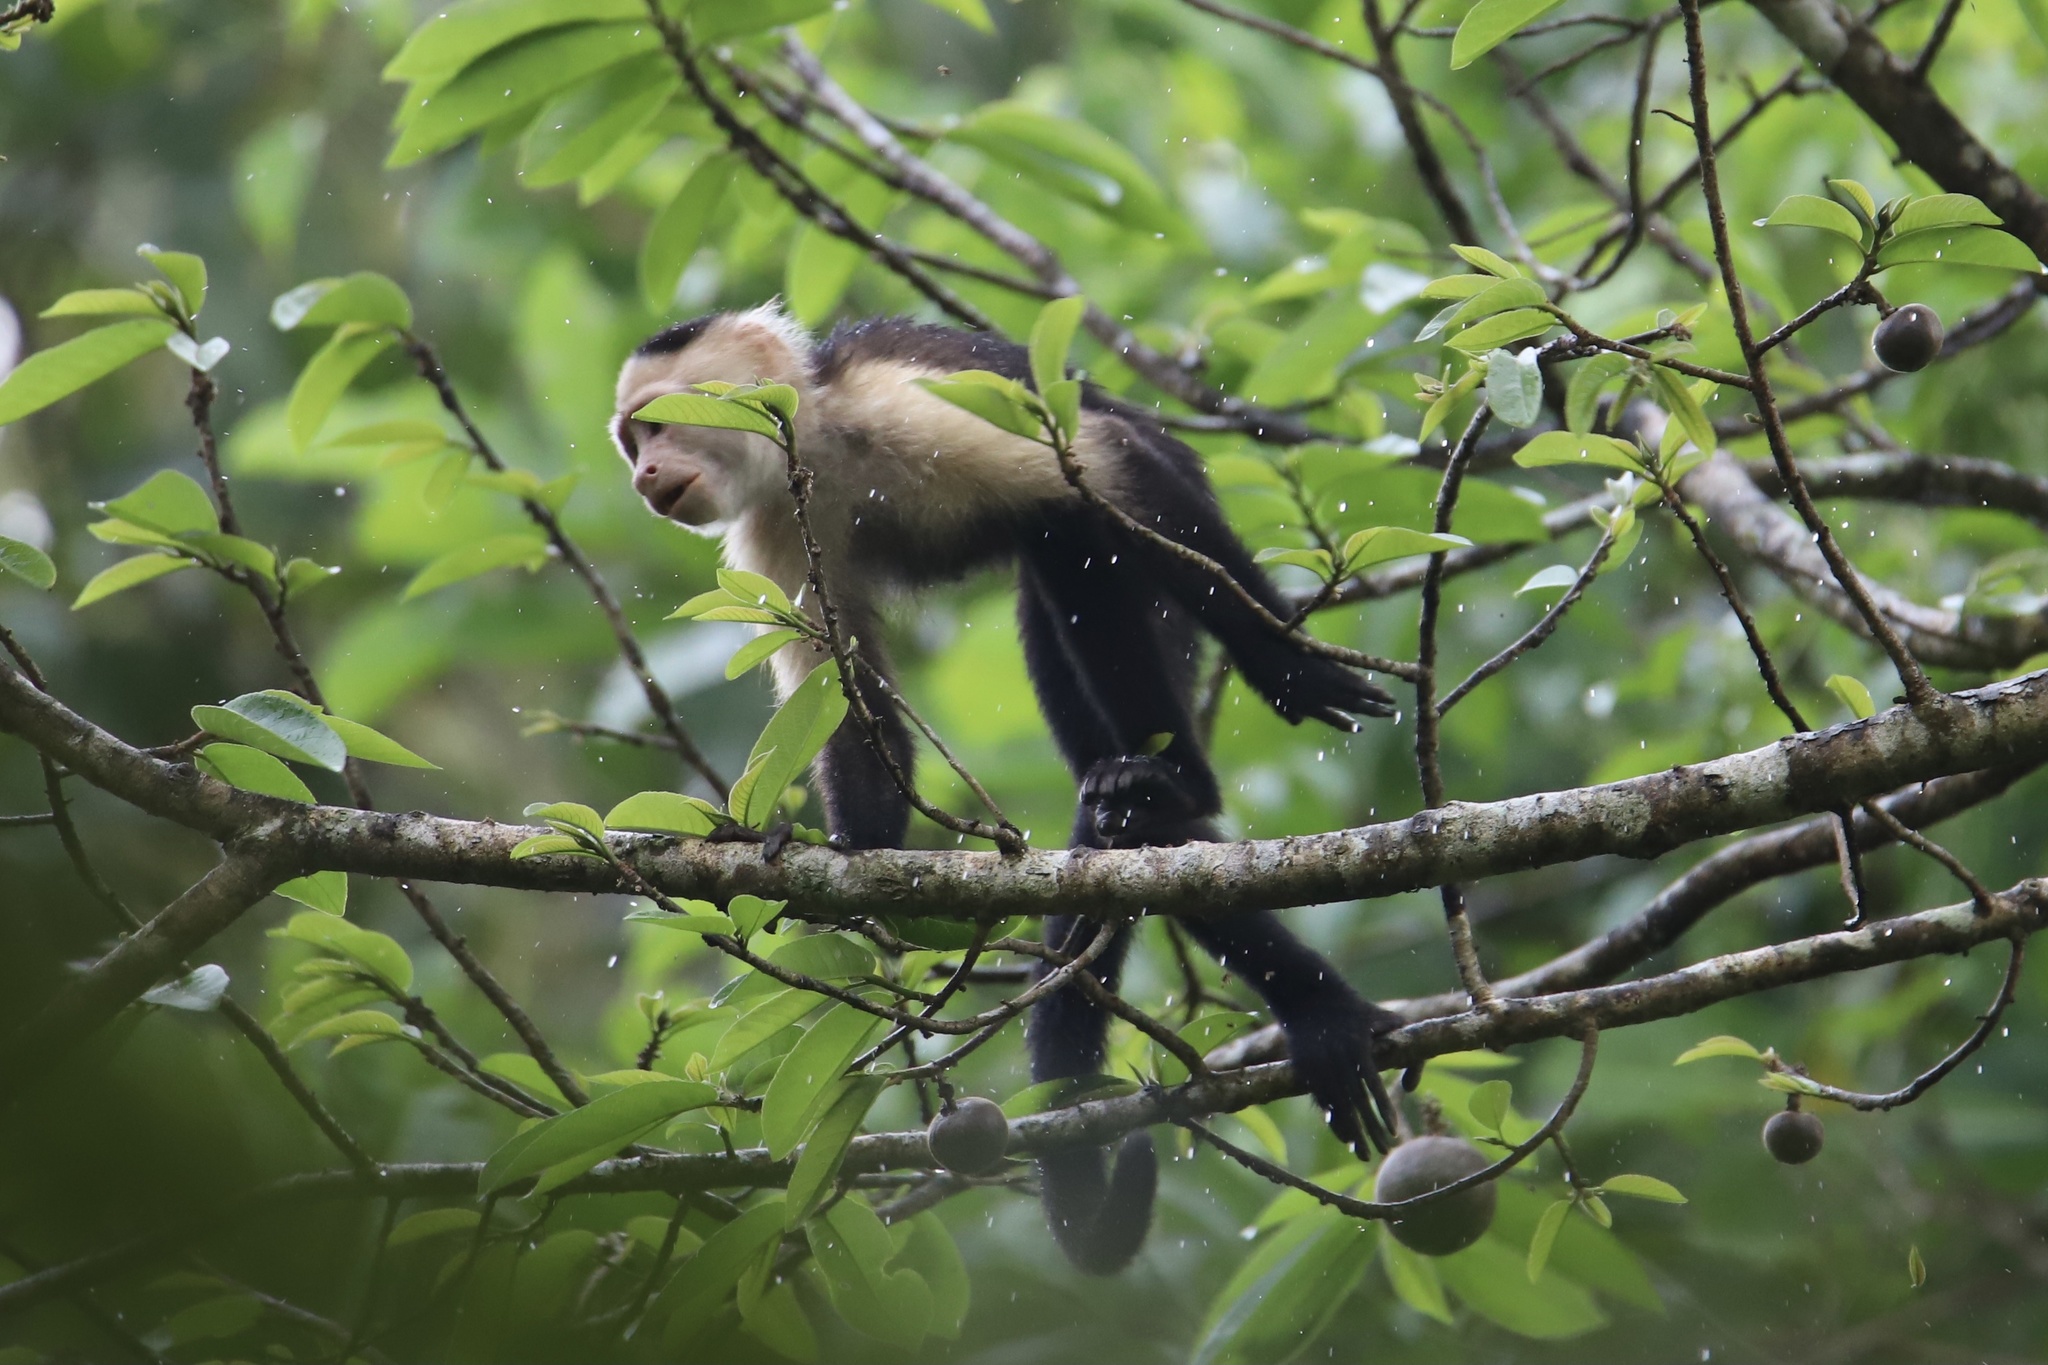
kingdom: Animalia
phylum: Chordata
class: Mammalia
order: Primates
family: Cebidae
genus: Cebus
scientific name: Cebus imitator
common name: Panamanian white-faced capuchin
